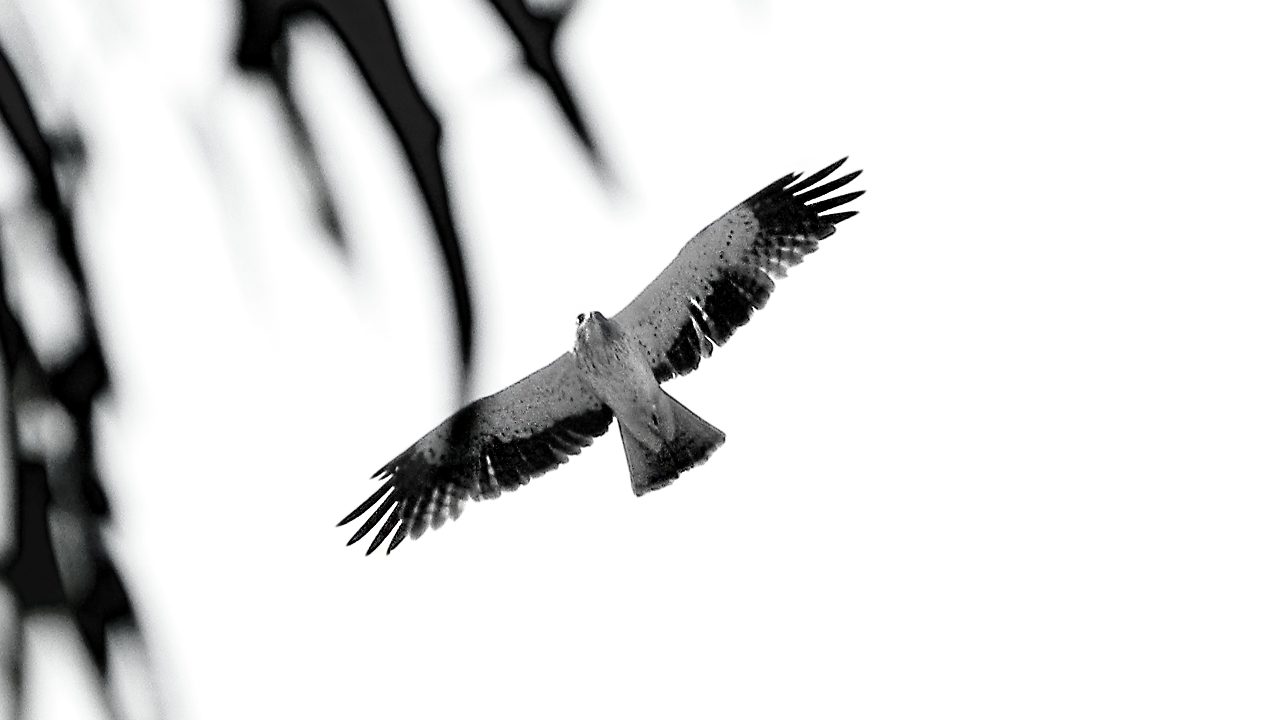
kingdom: Animalia
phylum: Chordata
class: Aves
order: Accipitriformes
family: Accipitridae
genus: Hieraaetus
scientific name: Hieraaetus pennatus
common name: Booted eagle
